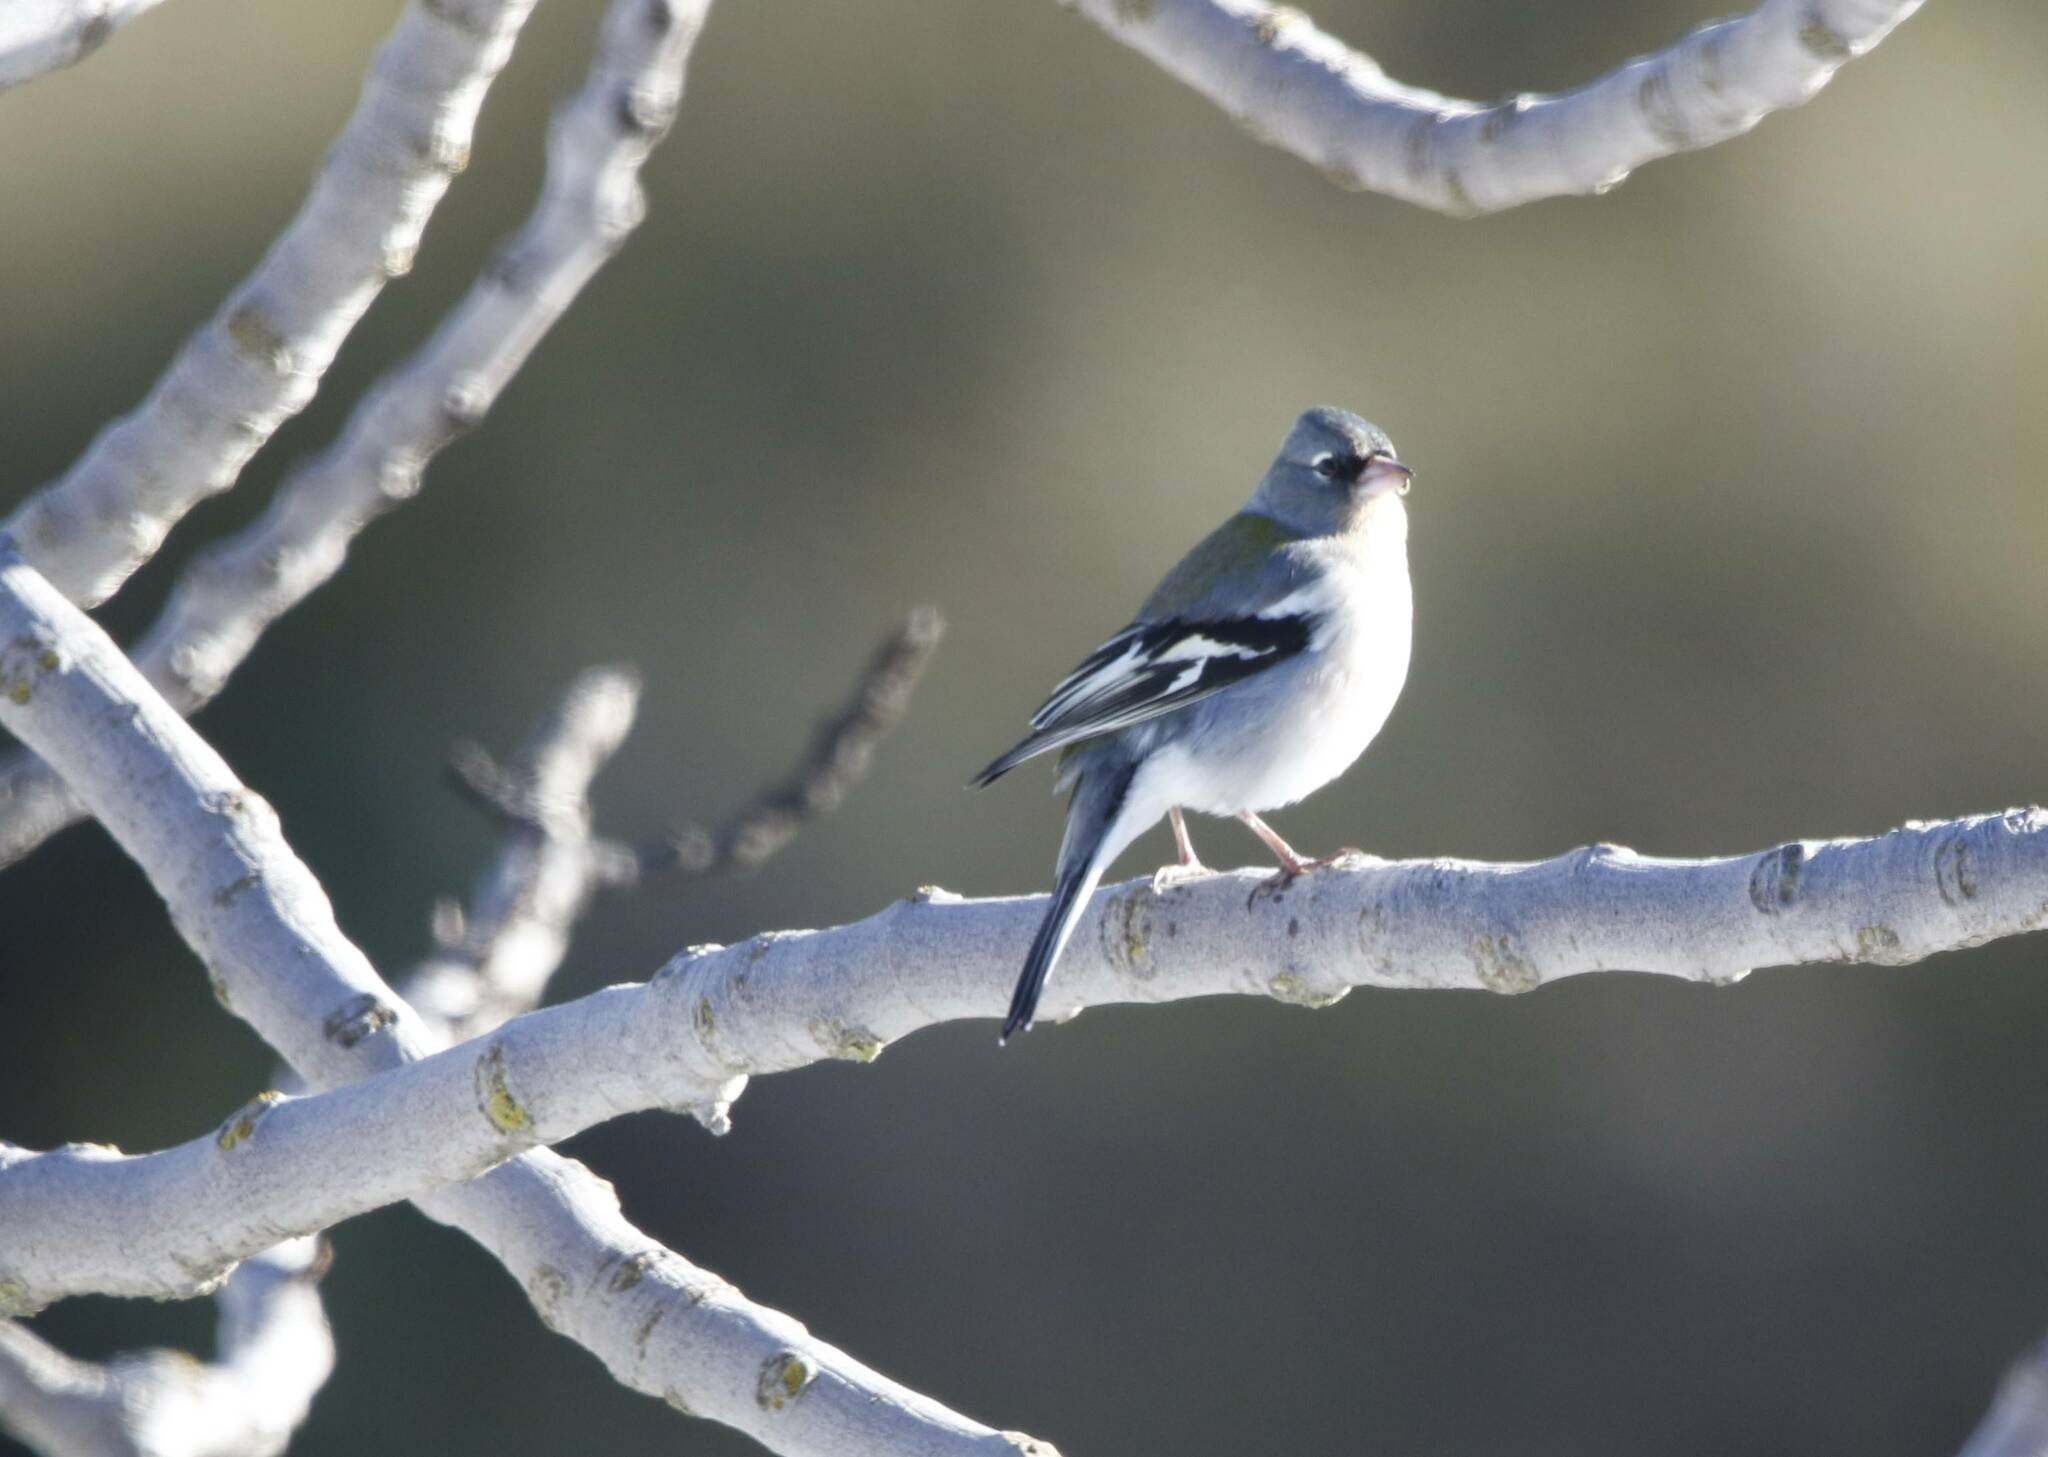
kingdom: Animalia
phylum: Chordata
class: Aves
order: Passeriformes
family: Fringillidae
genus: Fringilla
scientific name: Fringilla spodiogenys
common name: African chaffinch
